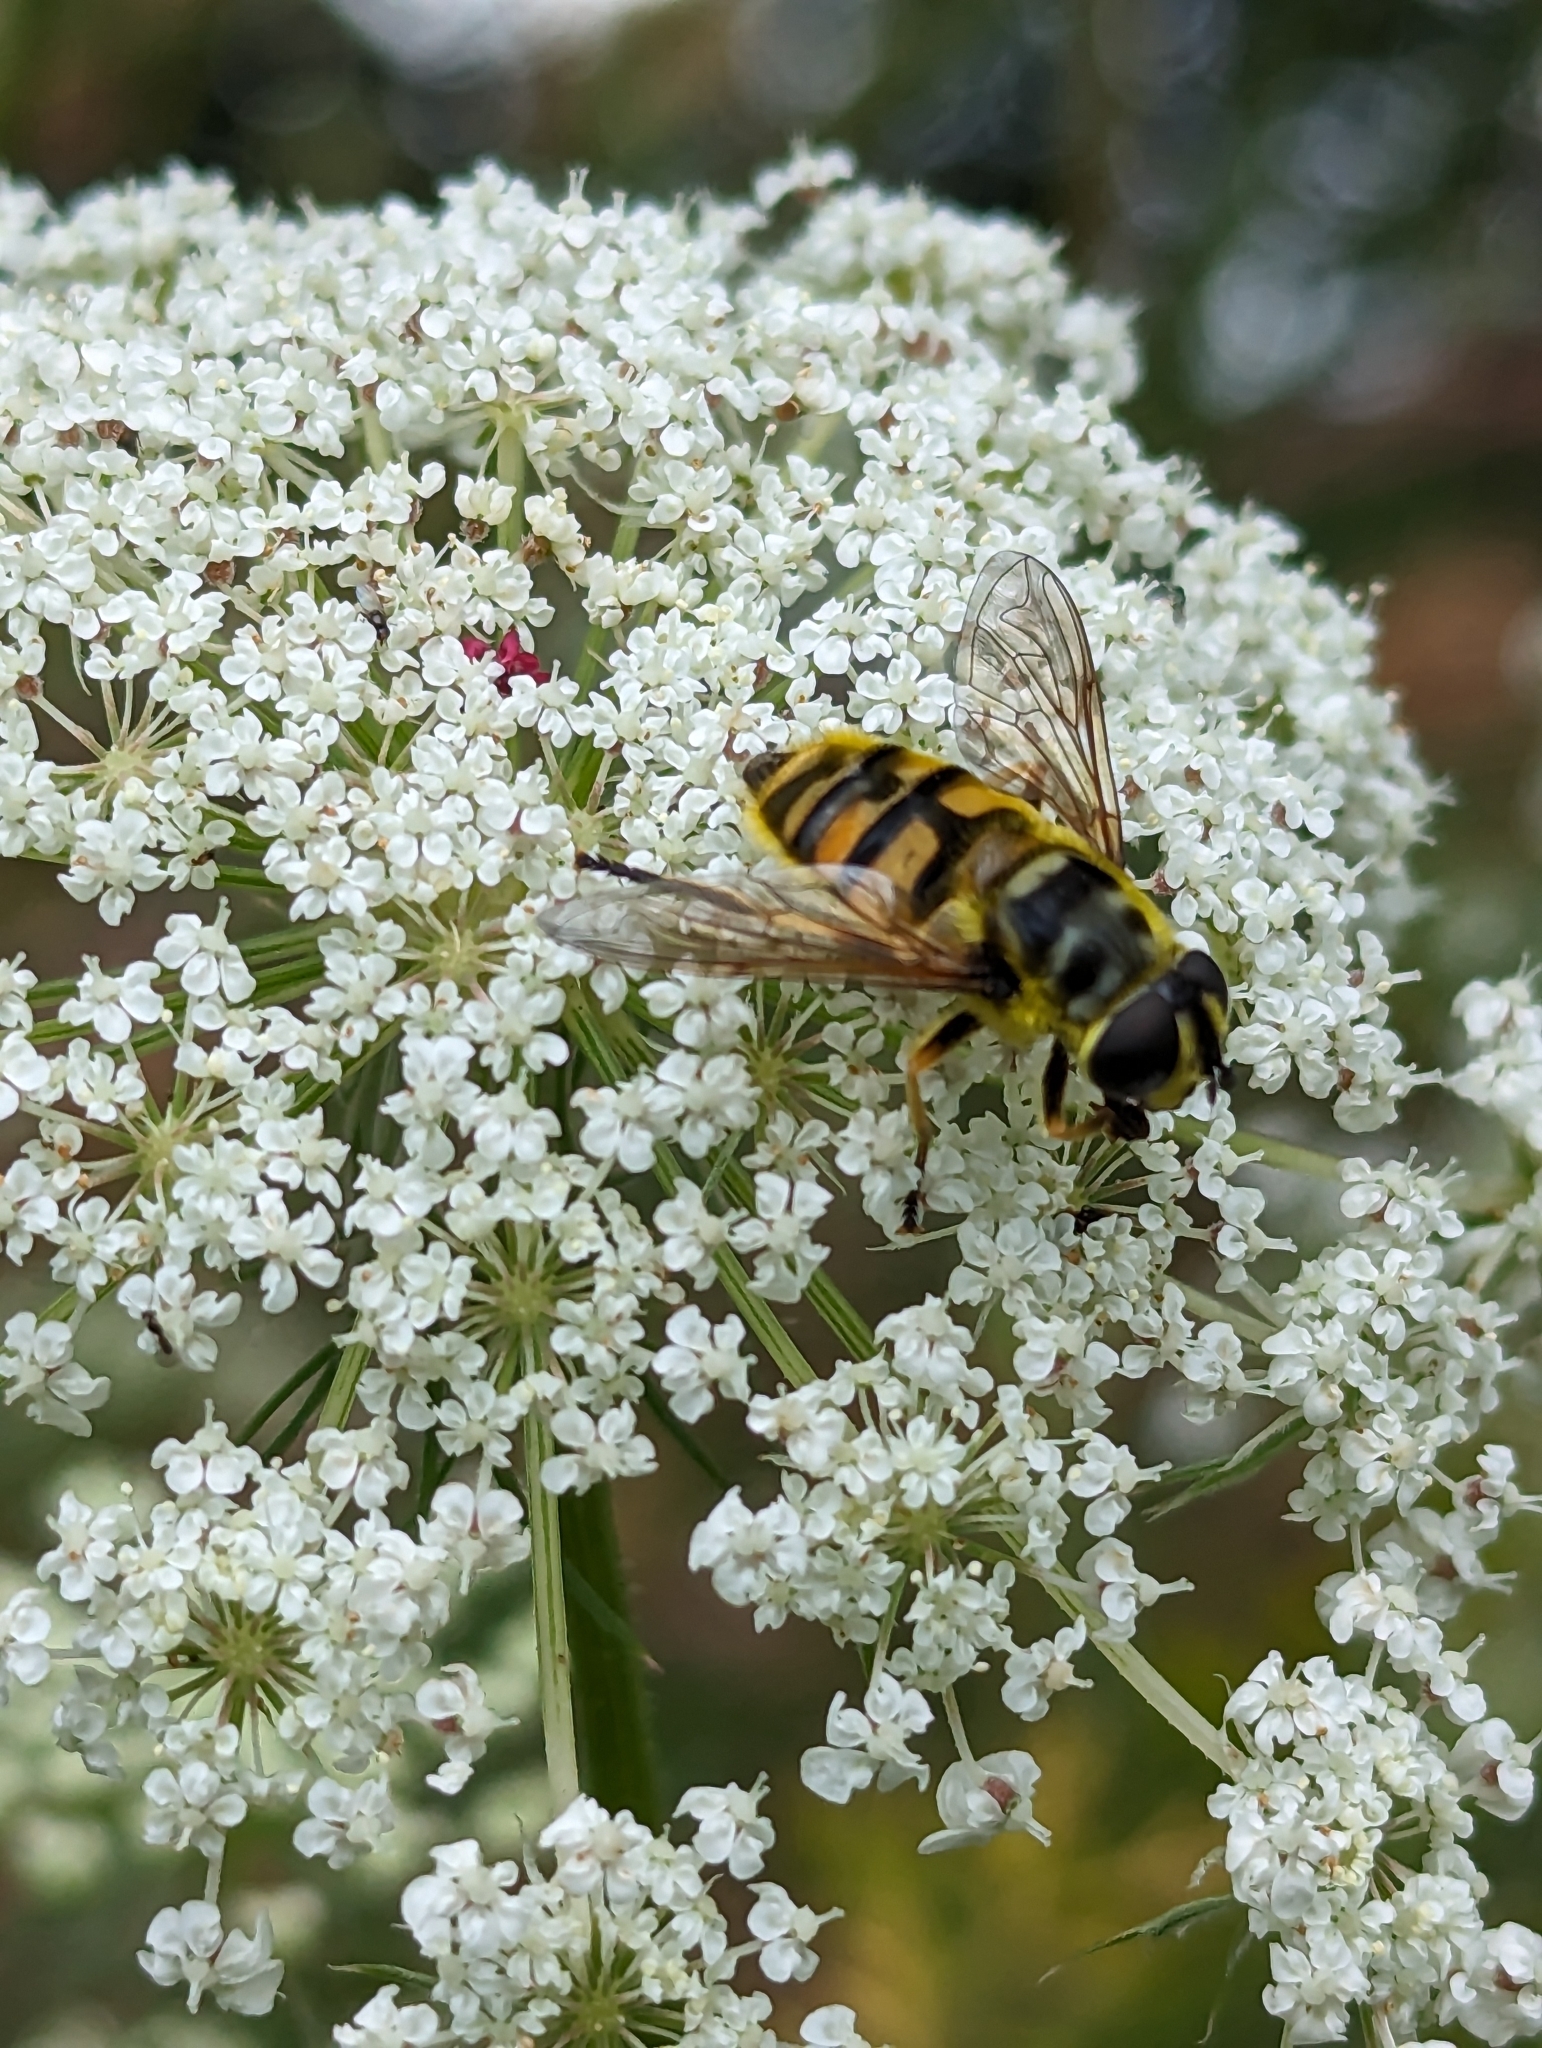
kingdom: Animalia
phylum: Arthropoda
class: Insecta
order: Diptera
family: Syrphidae
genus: Myathropa
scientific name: Myathropa florea
